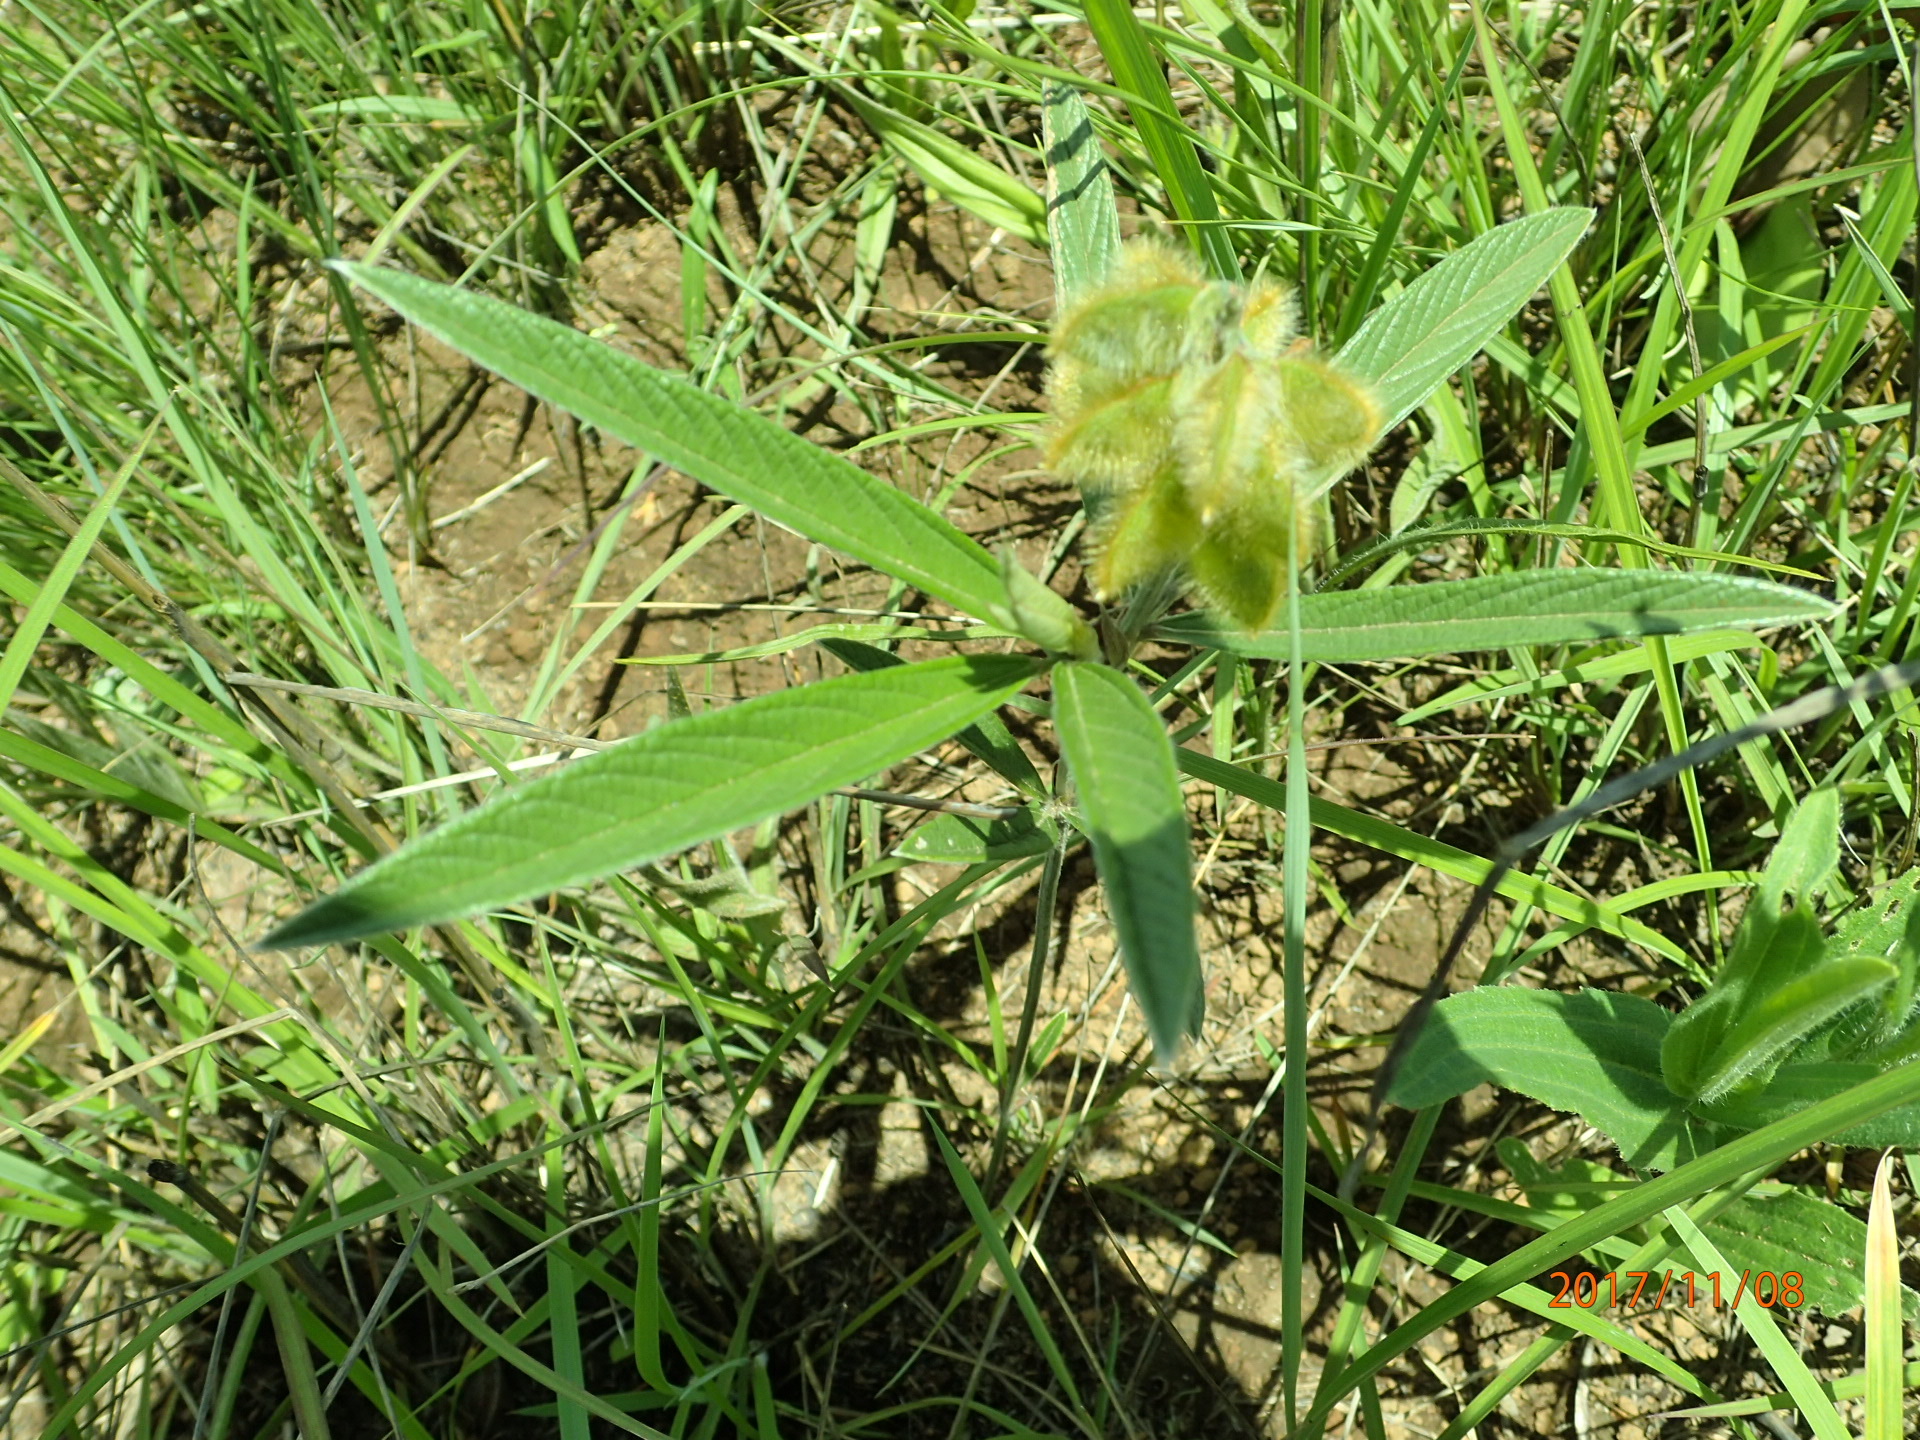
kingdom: Plantae
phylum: Tracheophyta
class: Magnoliopsida
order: Fabales
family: Fabaceae
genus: Eriosema
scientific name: Eriosema salignum
